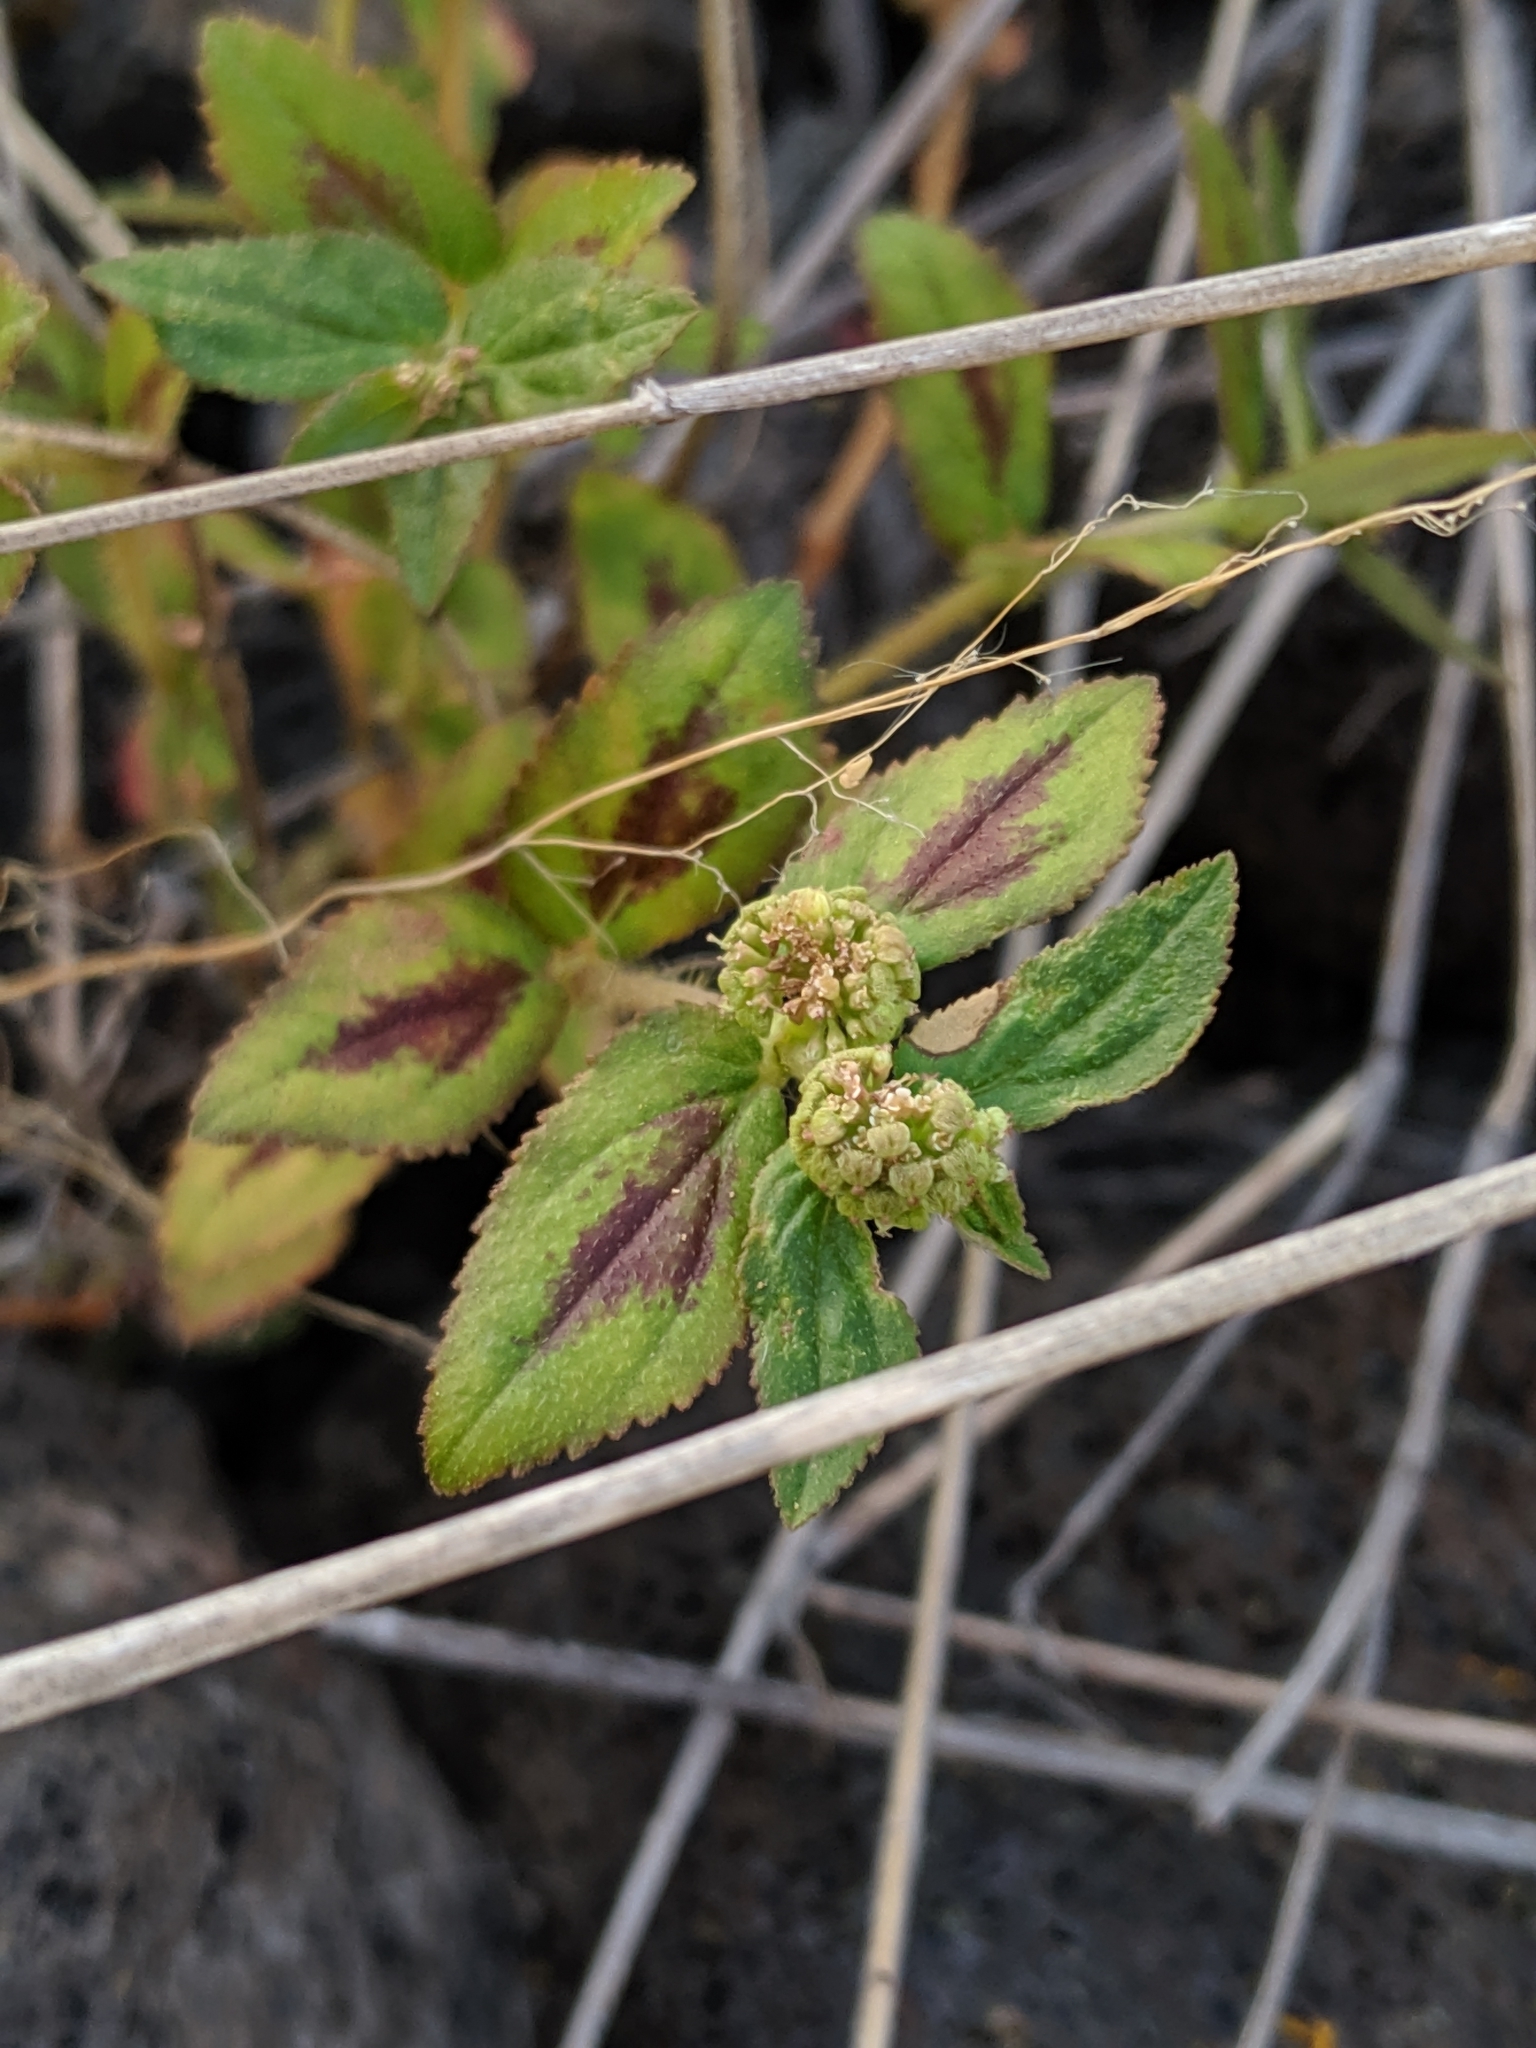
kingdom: Plantae
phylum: Tracheophyta
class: Magnoliopsida
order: Malpighiales
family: Euphorbiaceae
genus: Euphorbia
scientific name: Euphorbia hirta
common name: Pillpod sandmat
